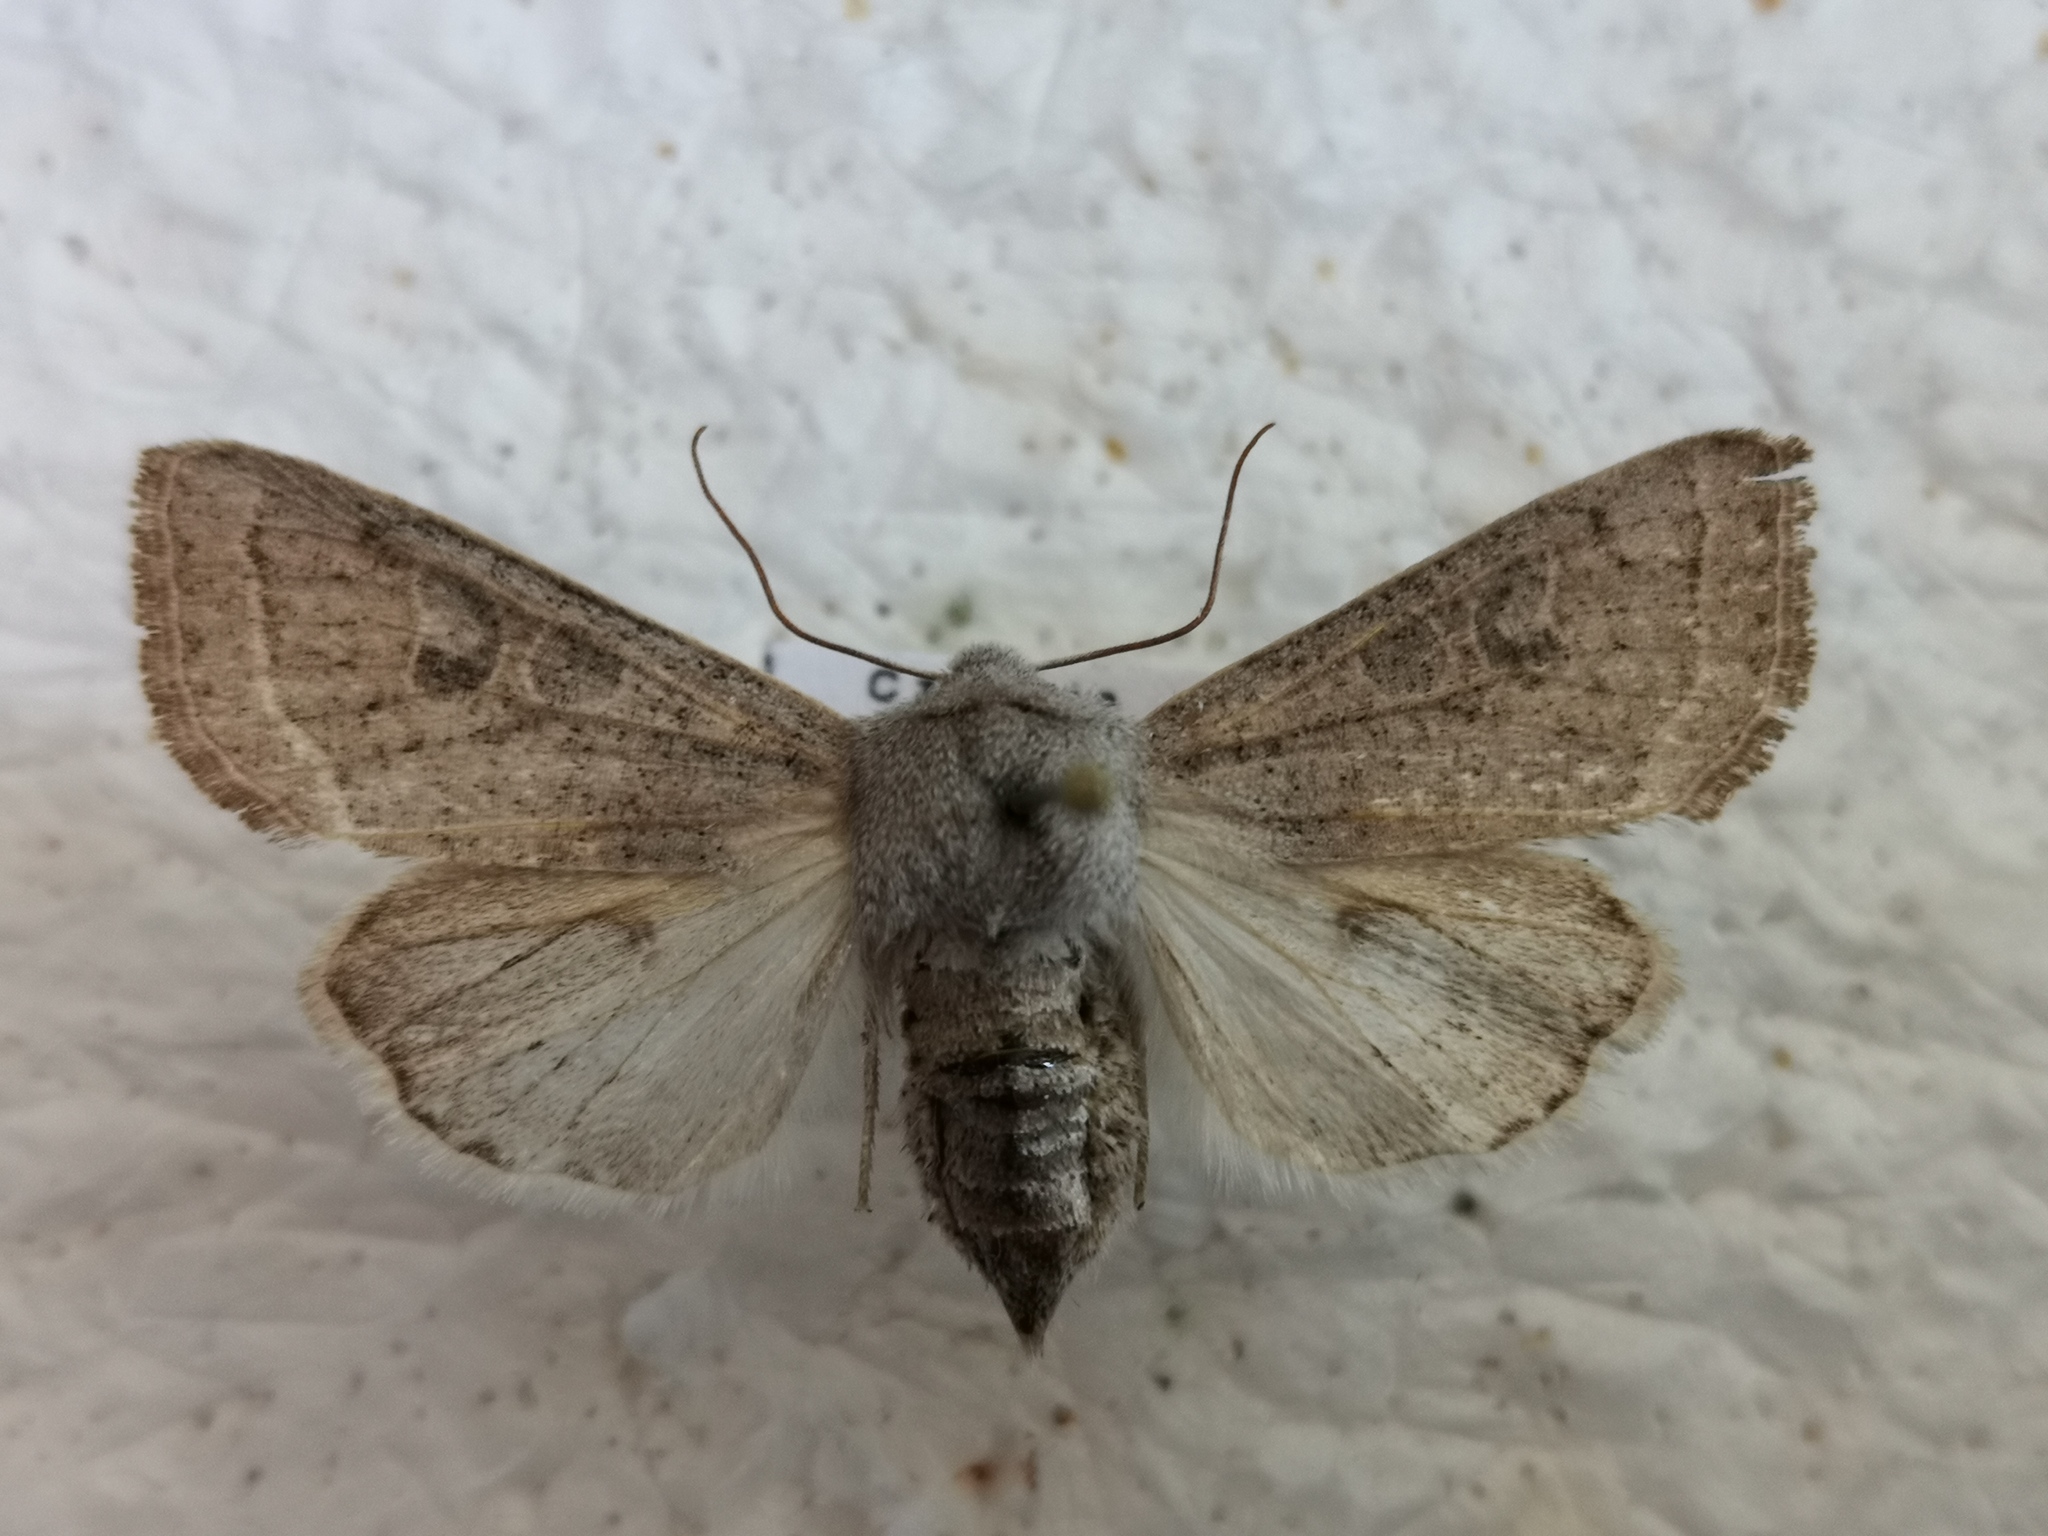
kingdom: Animalia
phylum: Arthropoda
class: Insecta
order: Lepidoptera
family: Noctuidae
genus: Orthosia
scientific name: Orthosia gracilis
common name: Powdered quaker
